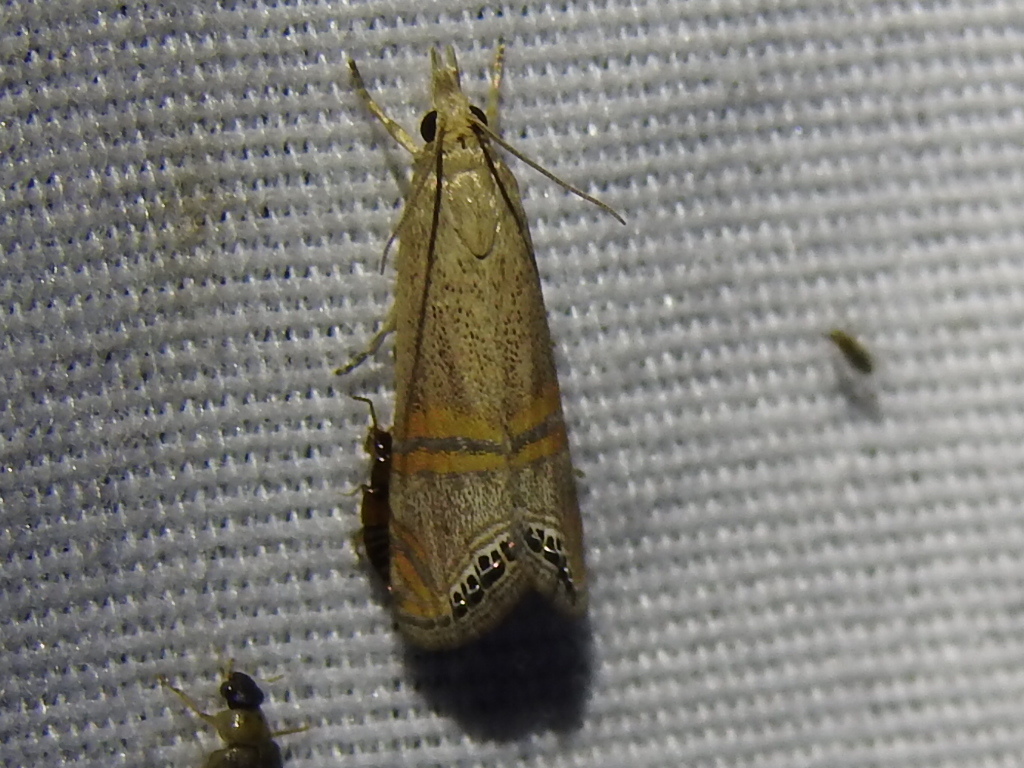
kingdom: Animalia
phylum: Arthropoda
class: Insecta
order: Lepidoptera
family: Crambidae
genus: Euchromius
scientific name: Euchromius ocellea
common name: Necklace veneer moth
